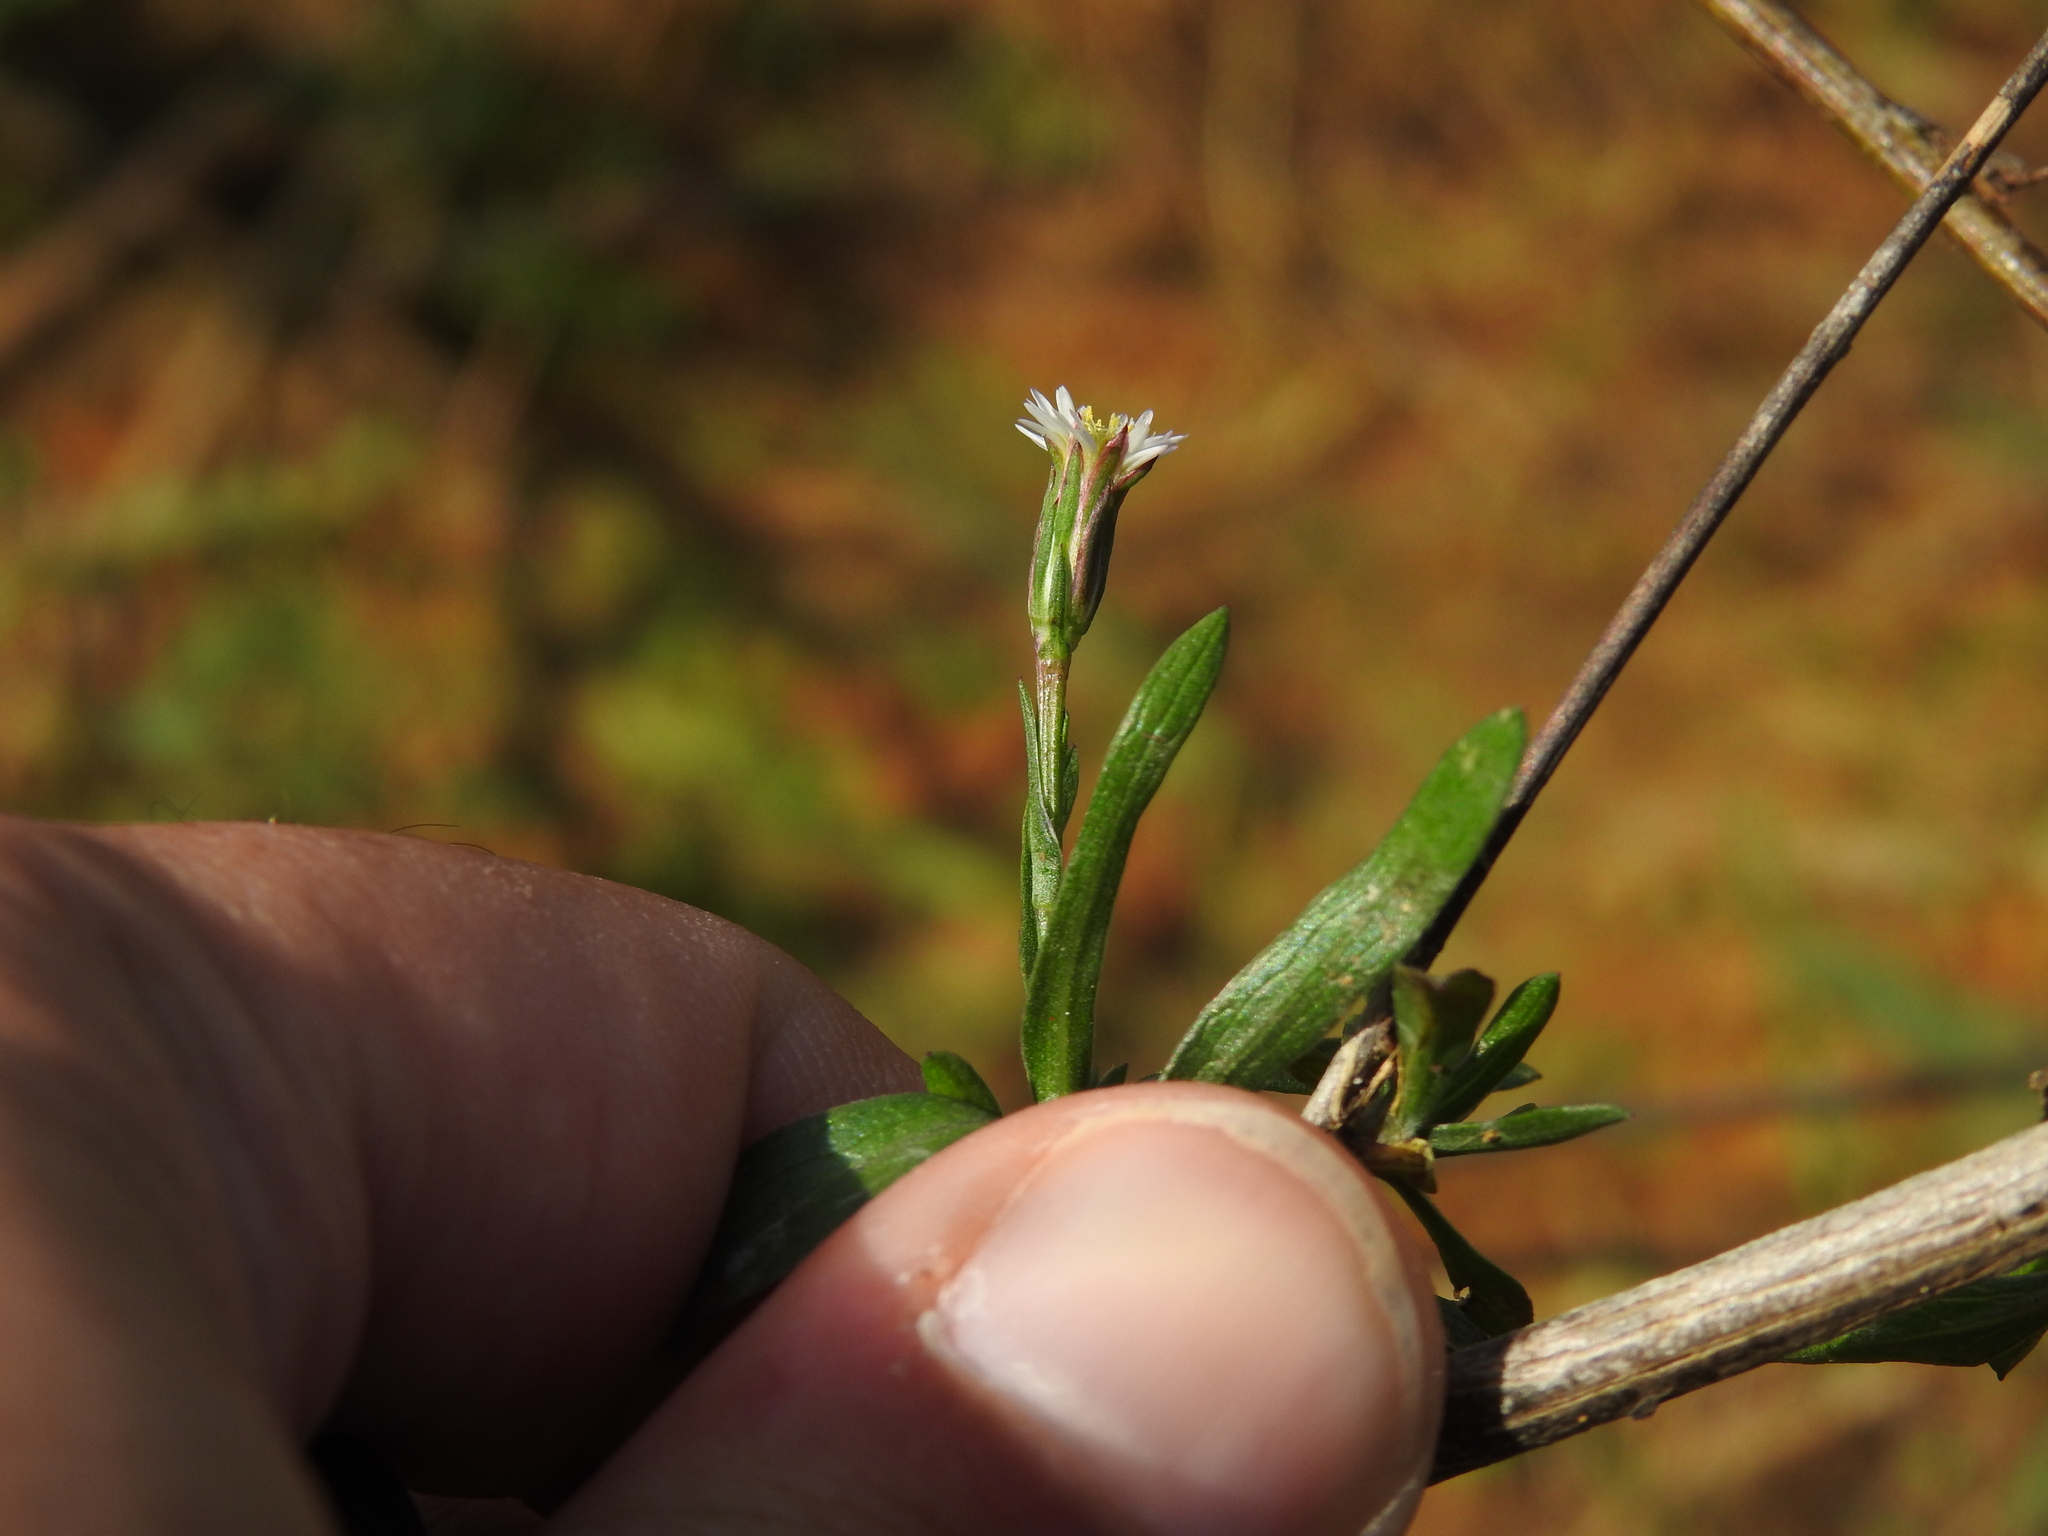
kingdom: Plantae
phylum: Tracheophyta
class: Magnoliopsida
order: Asterales
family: Asteraceae
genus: Symphyotrichum
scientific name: Symphyotrichum squamatum
